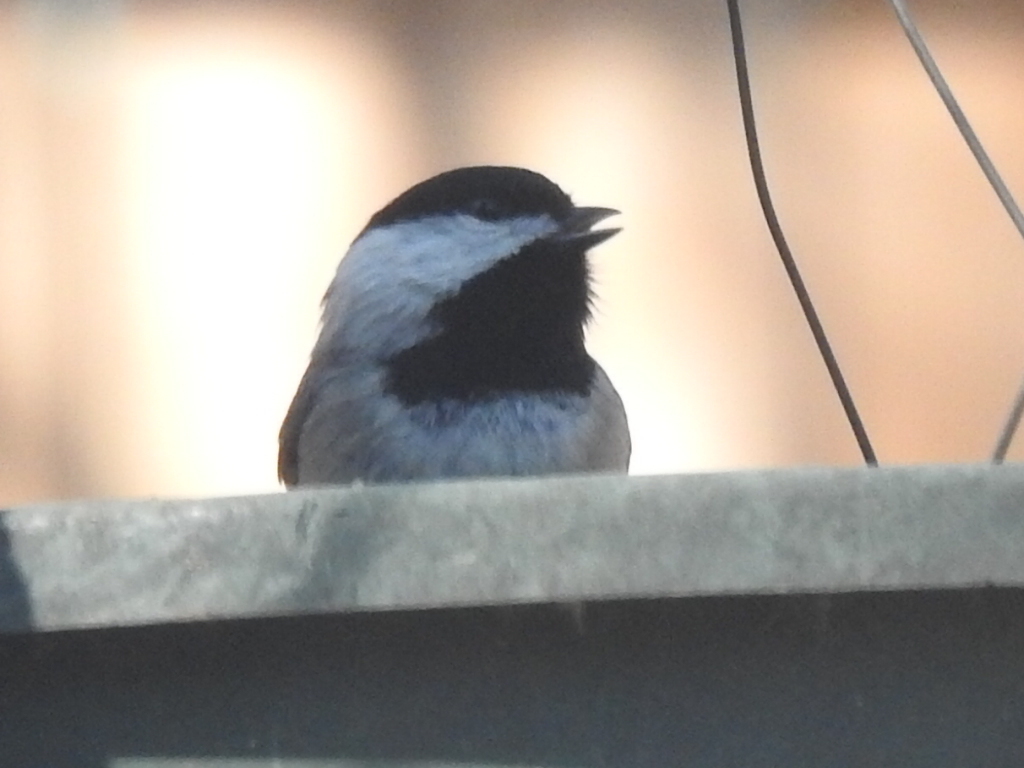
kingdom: Animalia
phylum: Chordata
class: Aves
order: Passeriformes
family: Paridae
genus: Poecile
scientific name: Poecile carolinensis
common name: Carolina chickadee
